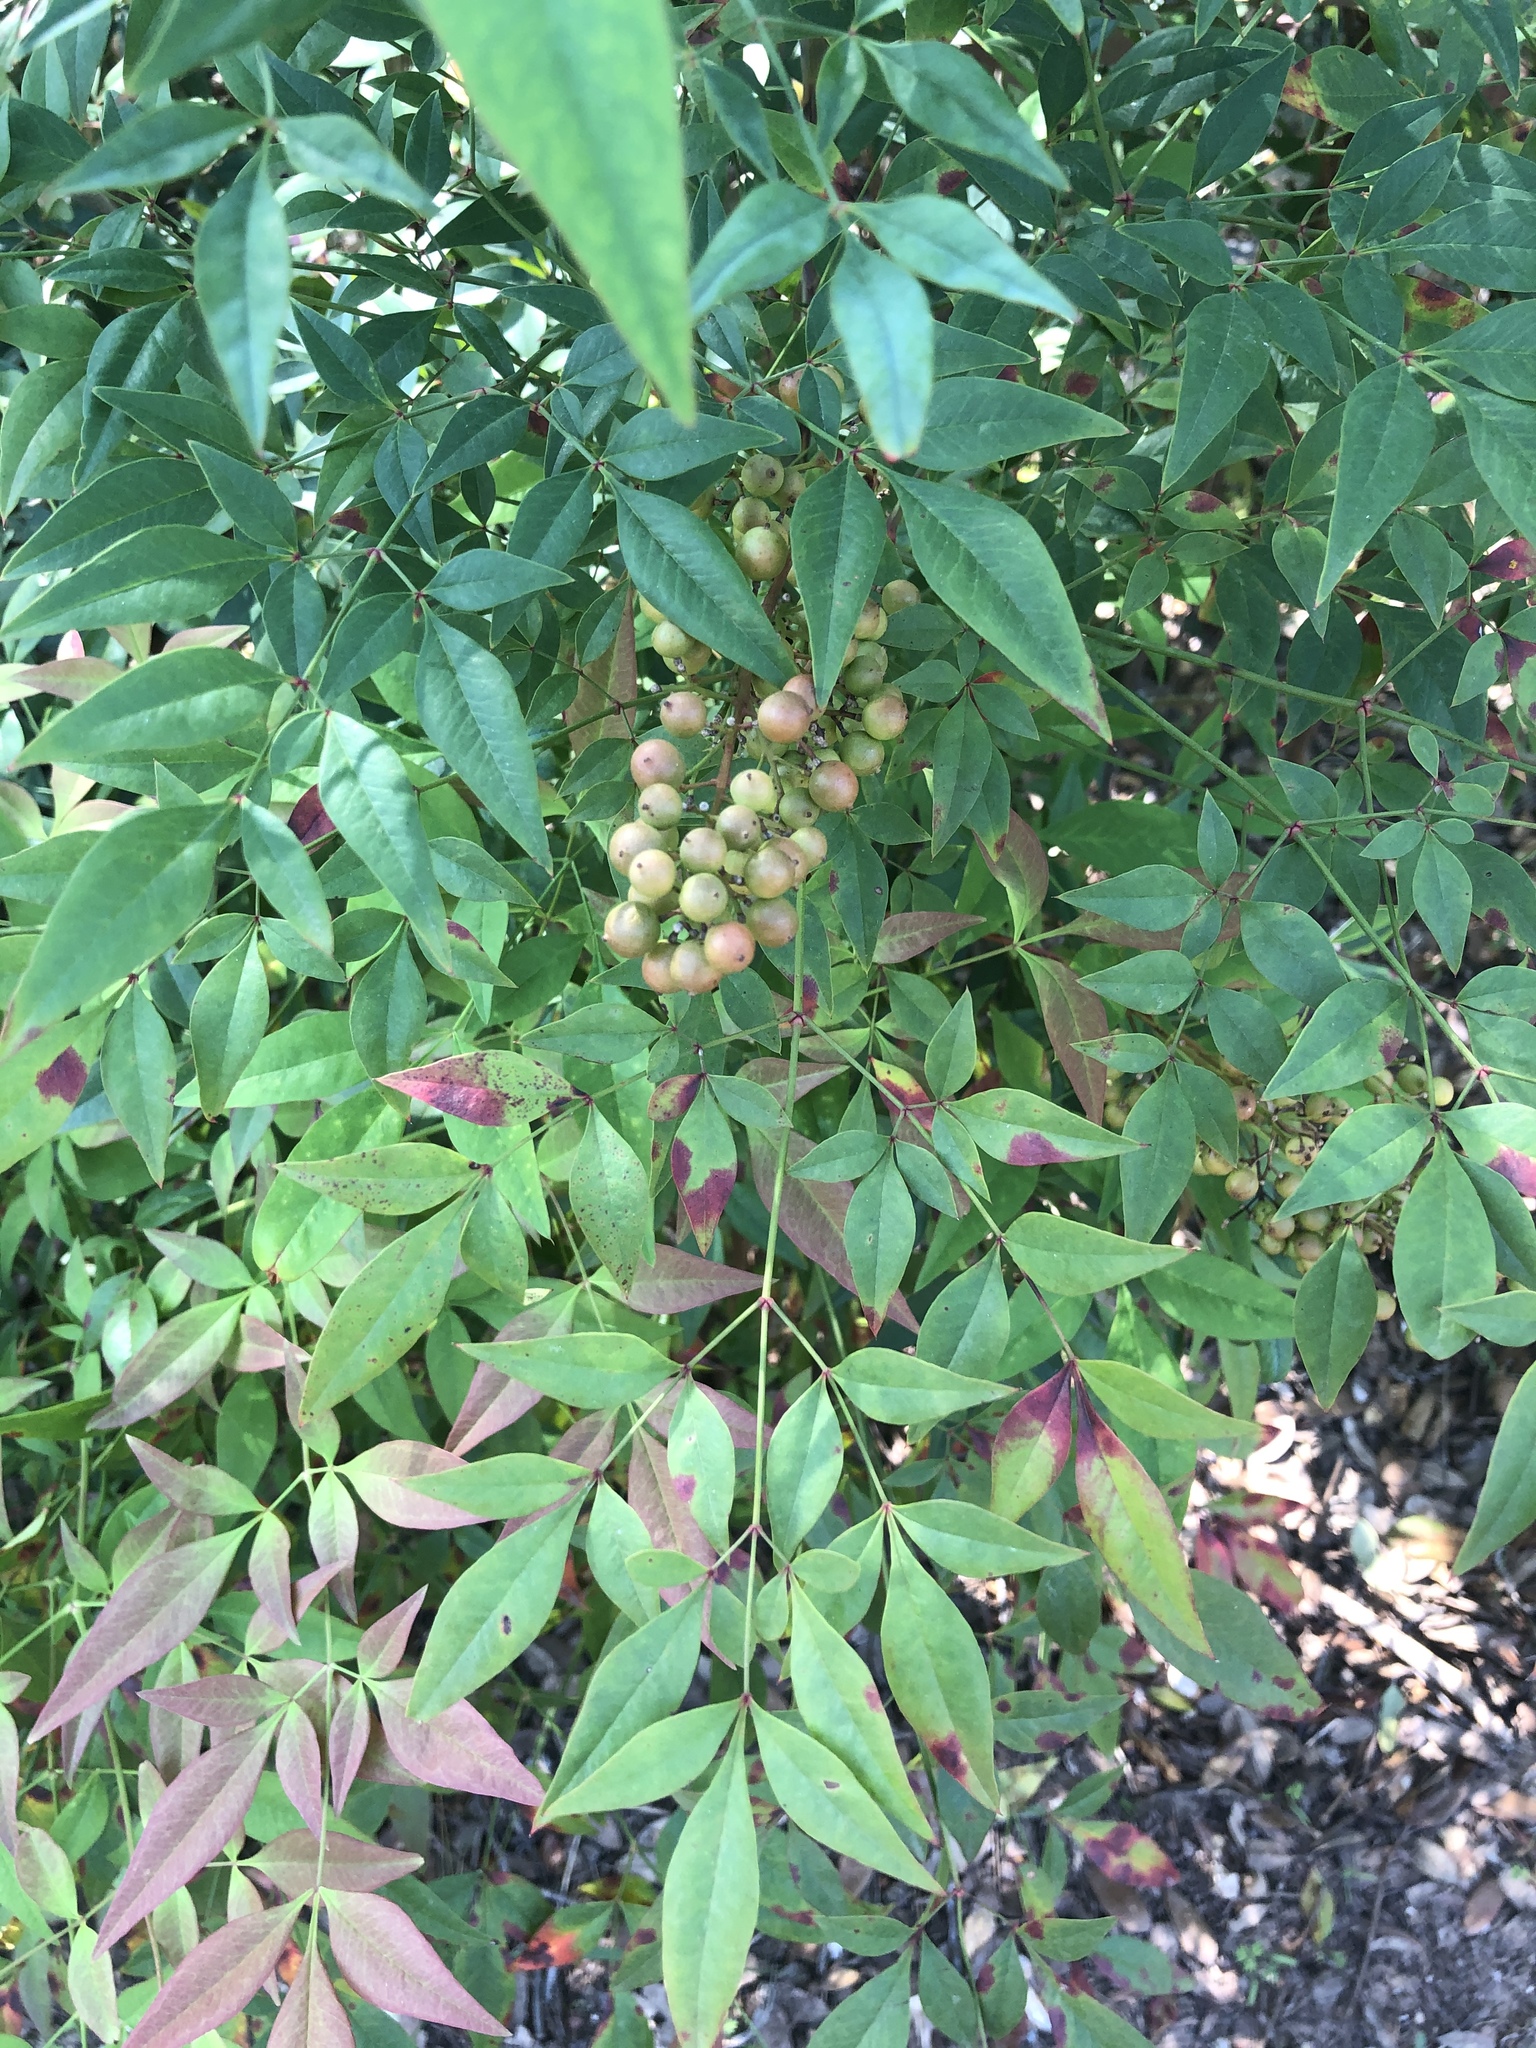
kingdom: Plantae
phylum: Tracheophyta
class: Magnoliopsida
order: Ranunculales
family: Berberidaceae
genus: Nandina
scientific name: Nandina domestica
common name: Sacred bamboo
